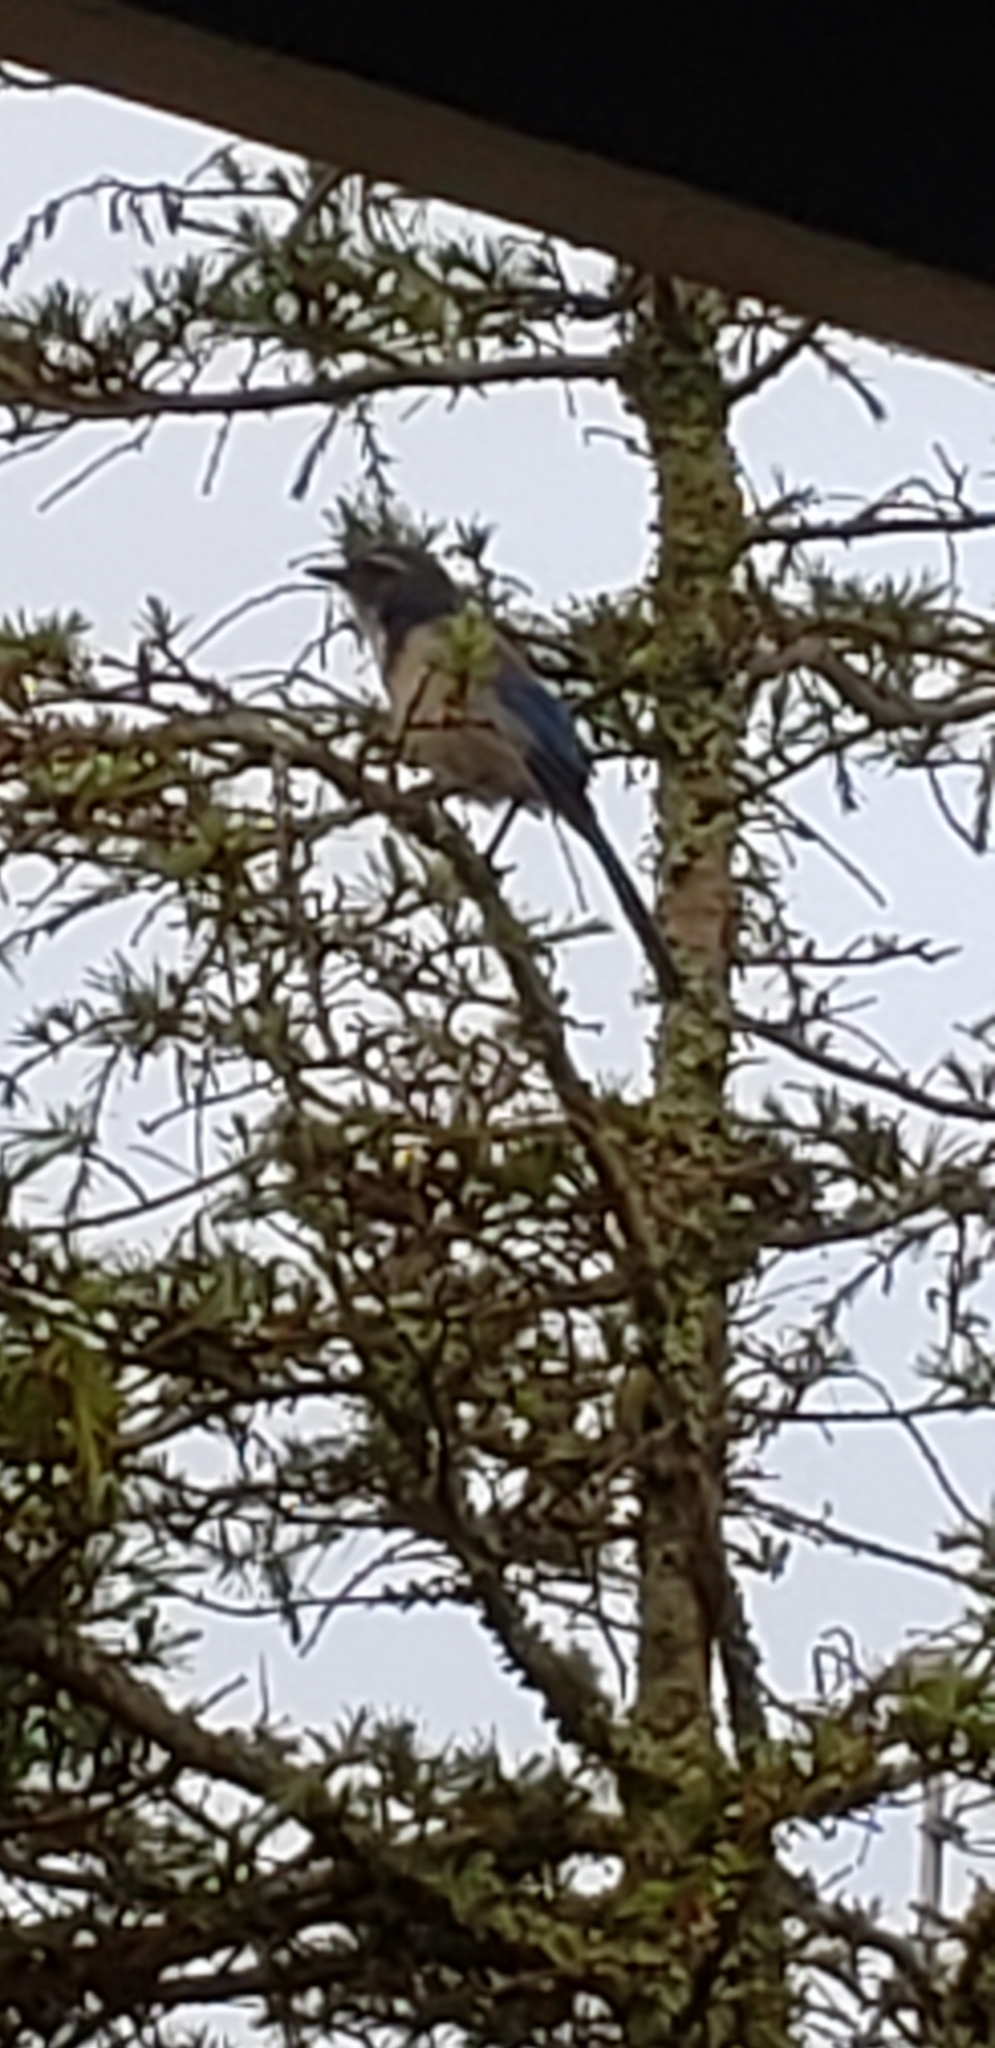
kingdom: Animalia
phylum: Chordata
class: Aves
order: Passeriformes
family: Corvidae
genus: Aphelocoma
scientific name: Aphelocoma californica
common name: California scrub-jay
